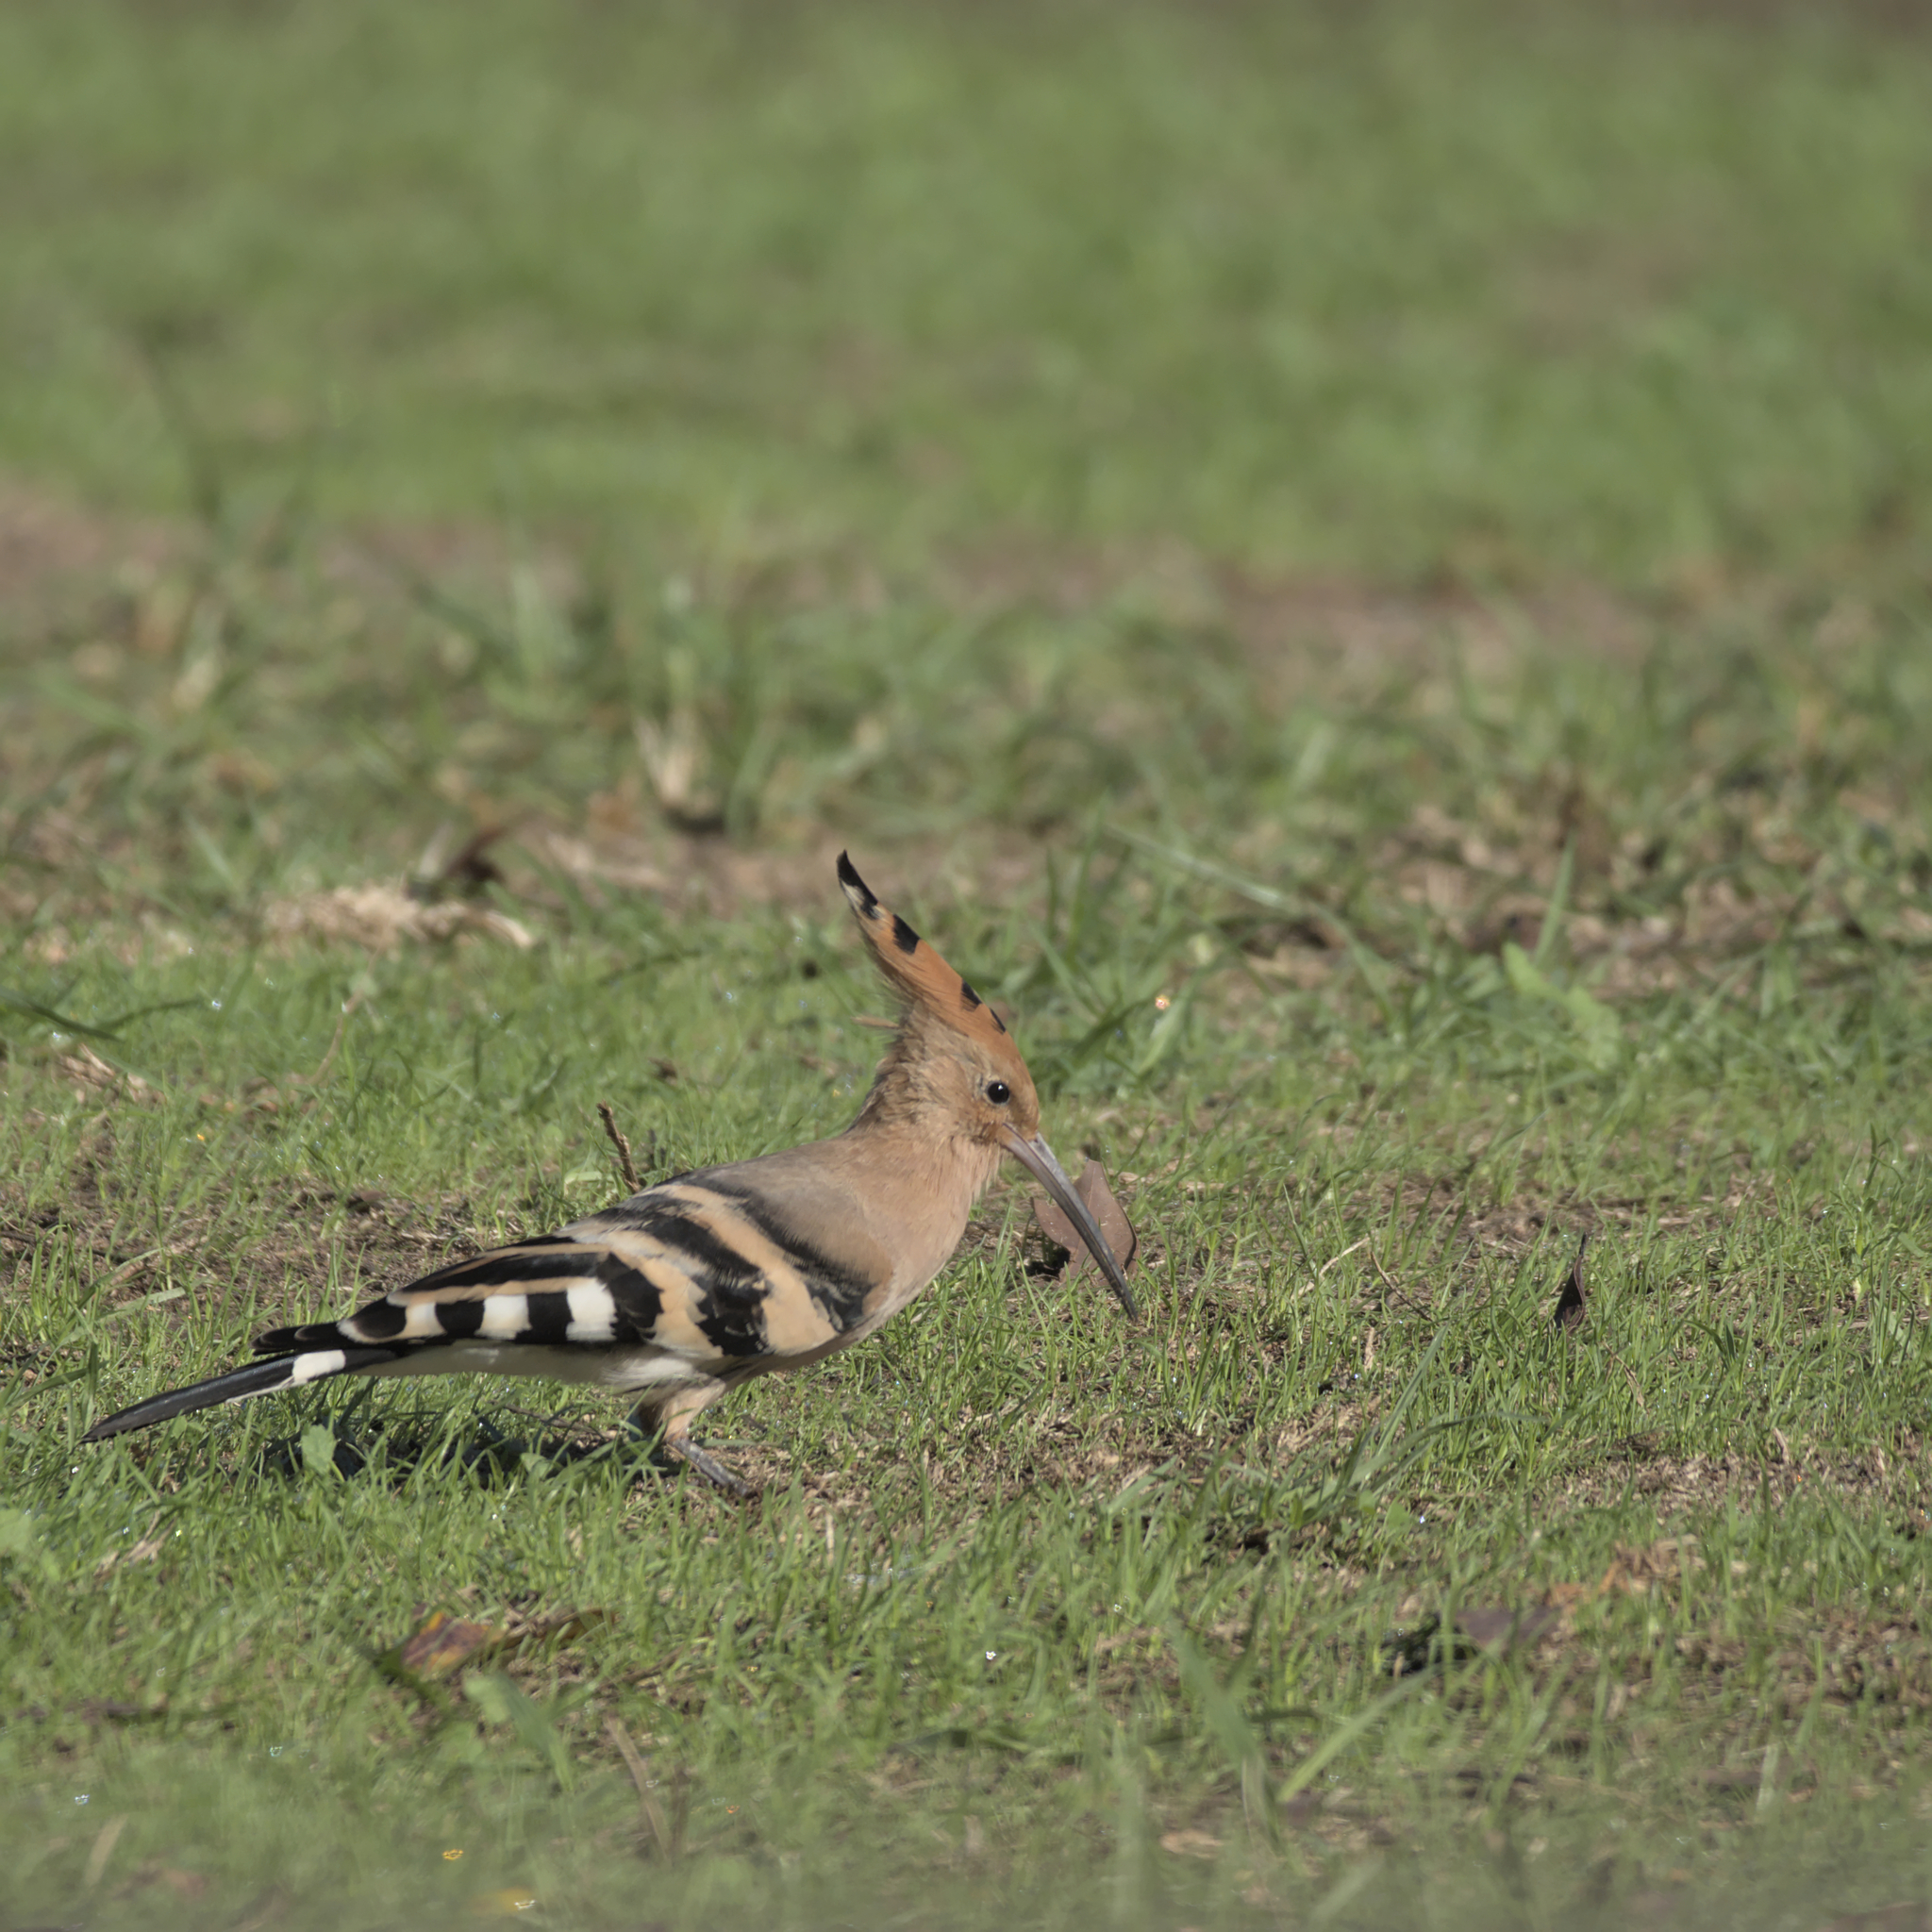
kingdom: Animalia
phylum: Chordata
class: Aves
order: Bucerotiformes
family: Upupidae
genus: Upupa
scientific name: Upupa epops
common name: Eurasian hoopoe
